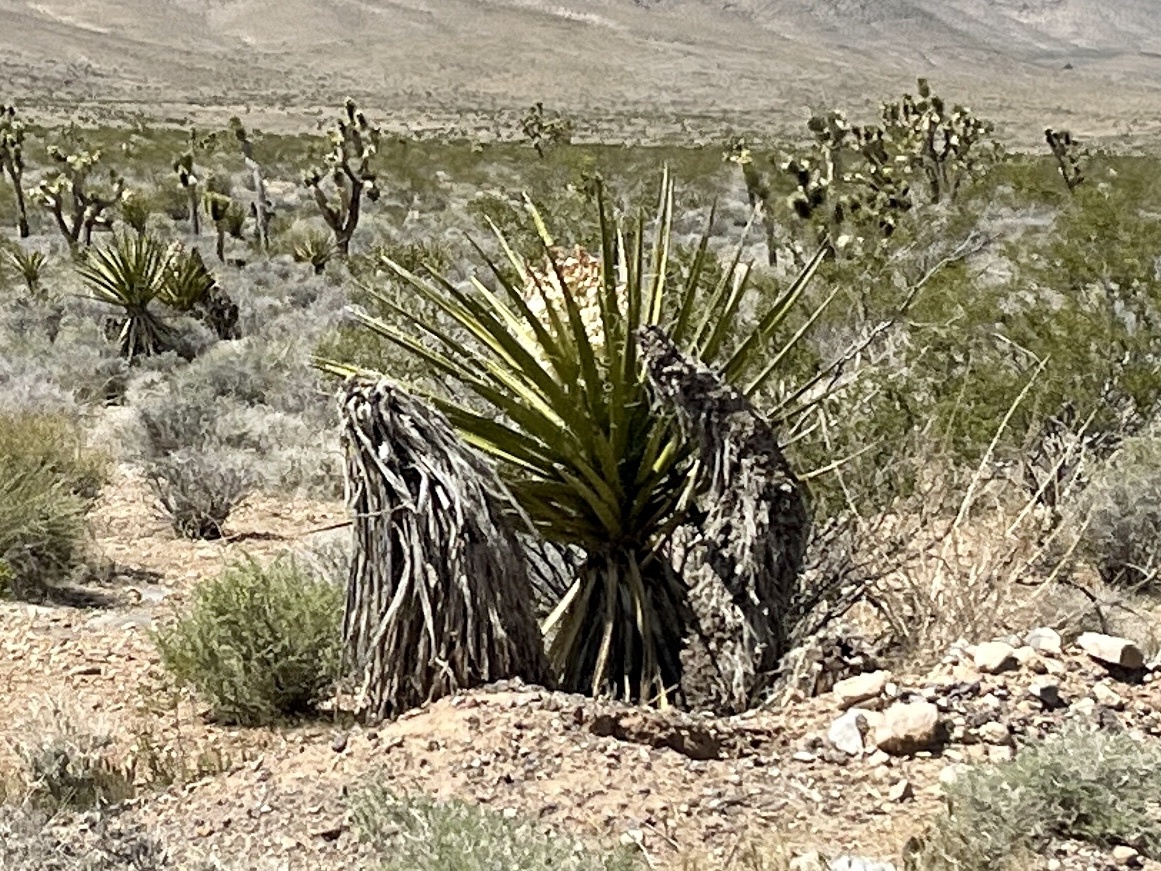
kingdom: Plantae
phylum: Tracheophyta
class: Liliopsida
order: Asparagales
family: Asparagaceae
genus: Yucca
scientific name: Yucca schidigera
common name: Mojave yucca
